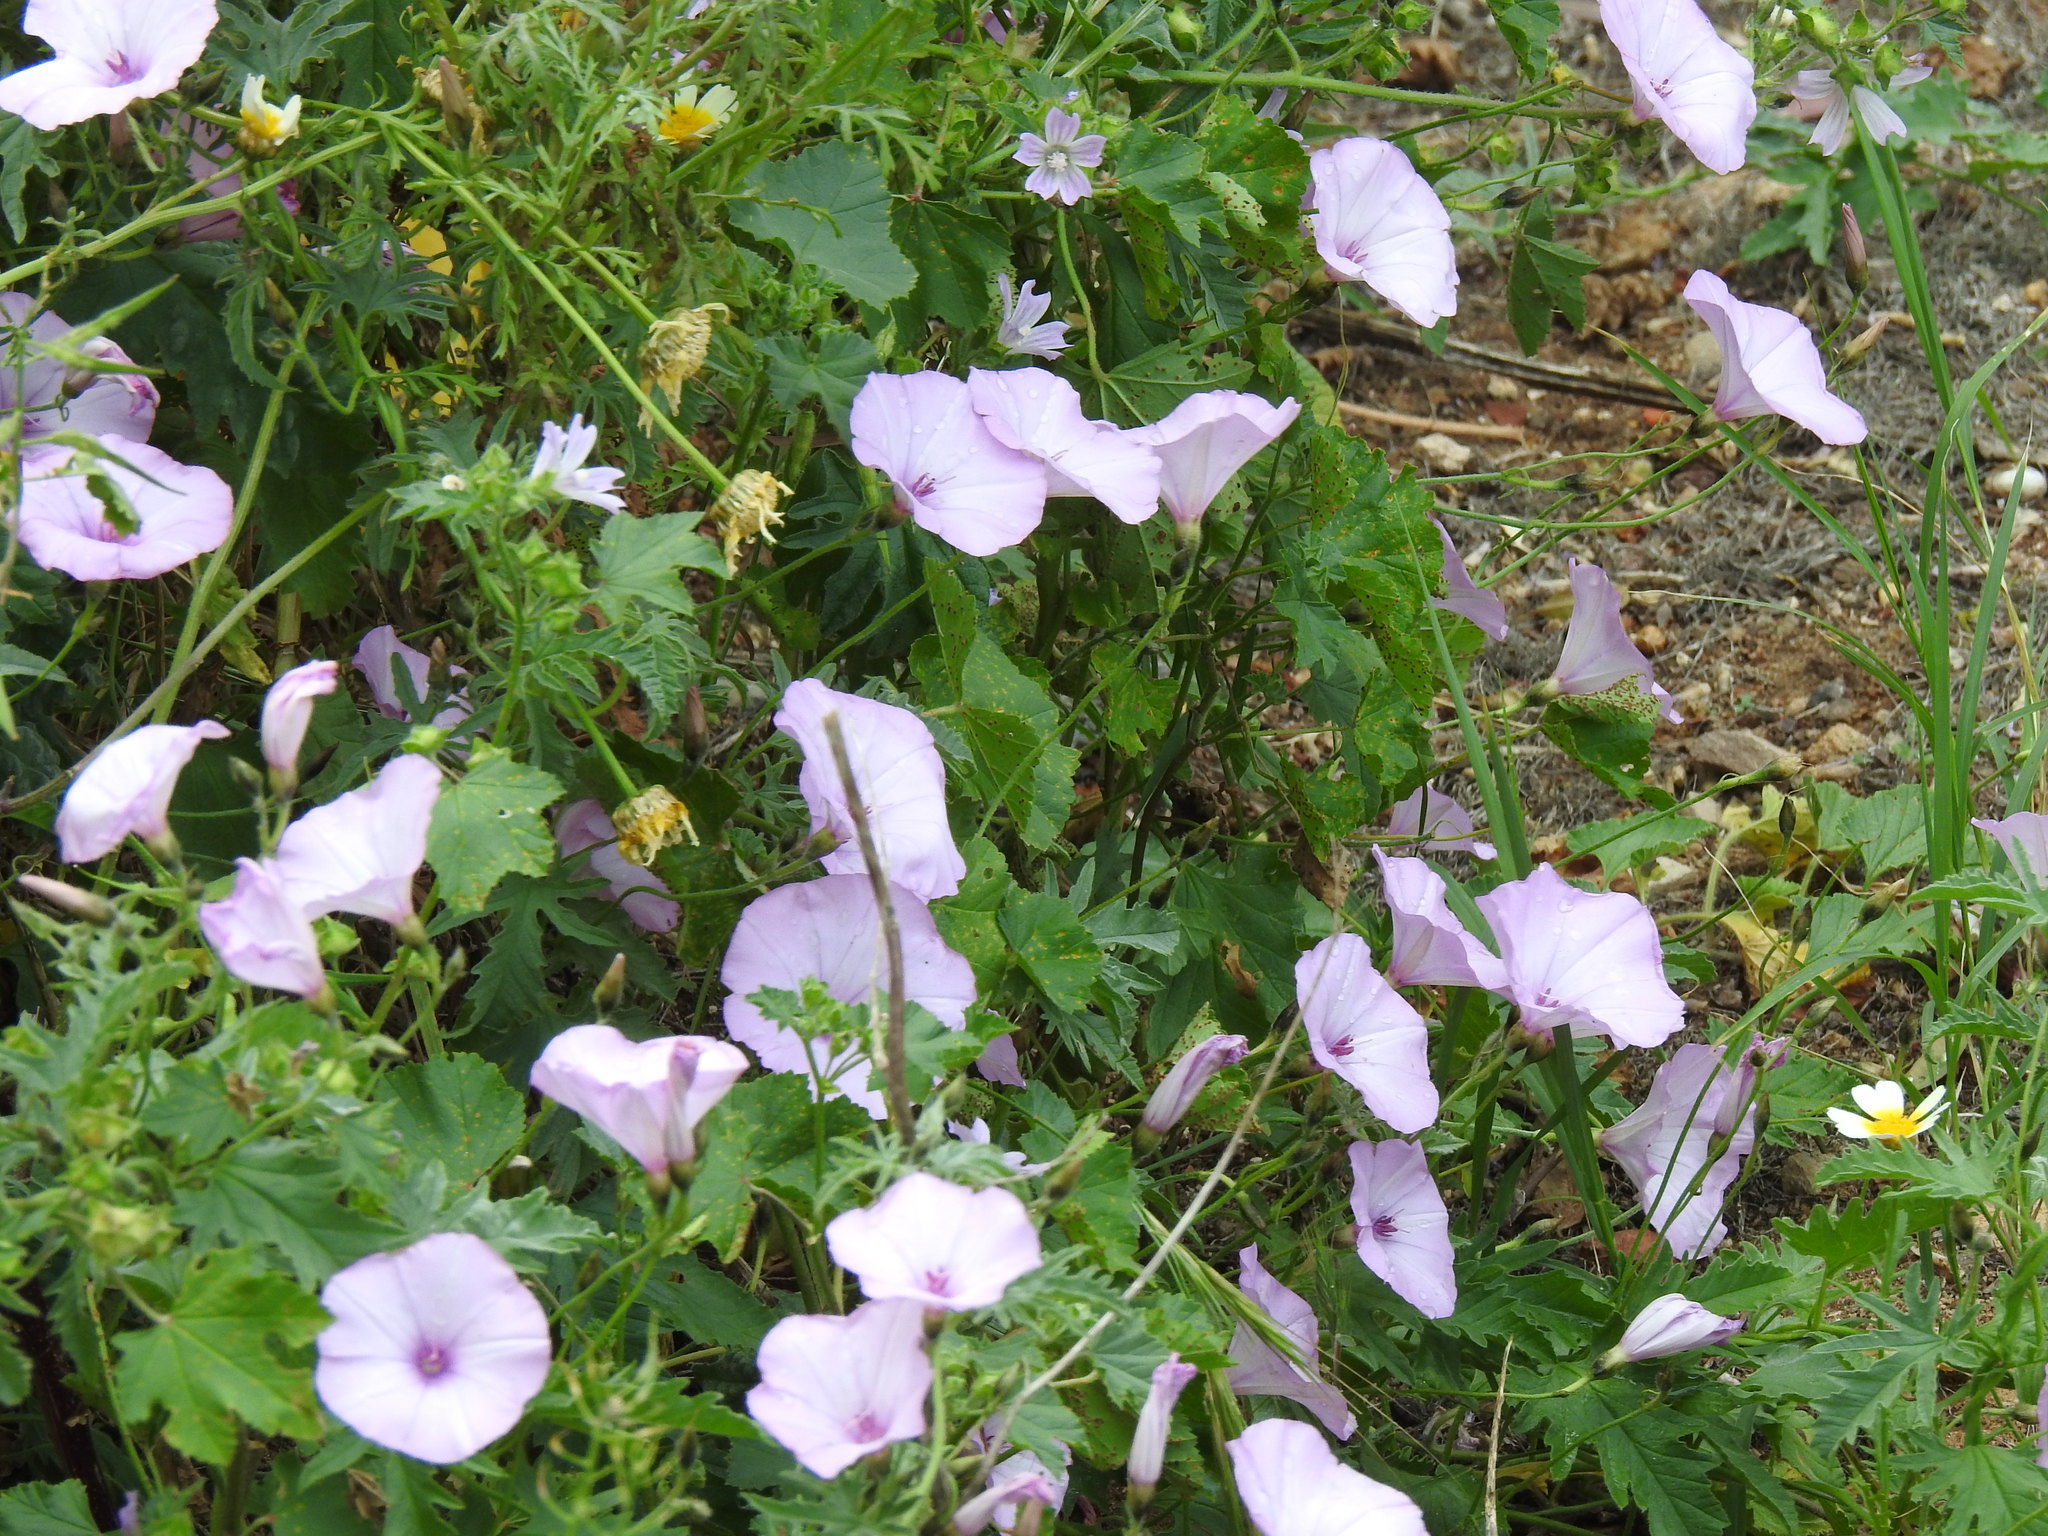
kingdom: Plantae
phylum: Tracheophyta
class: Magnoliopsida
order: Solanales
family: Convolvulaceae
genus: Convolvulus
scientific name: Convolvulus althaeoides
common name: Mallow bindweed
